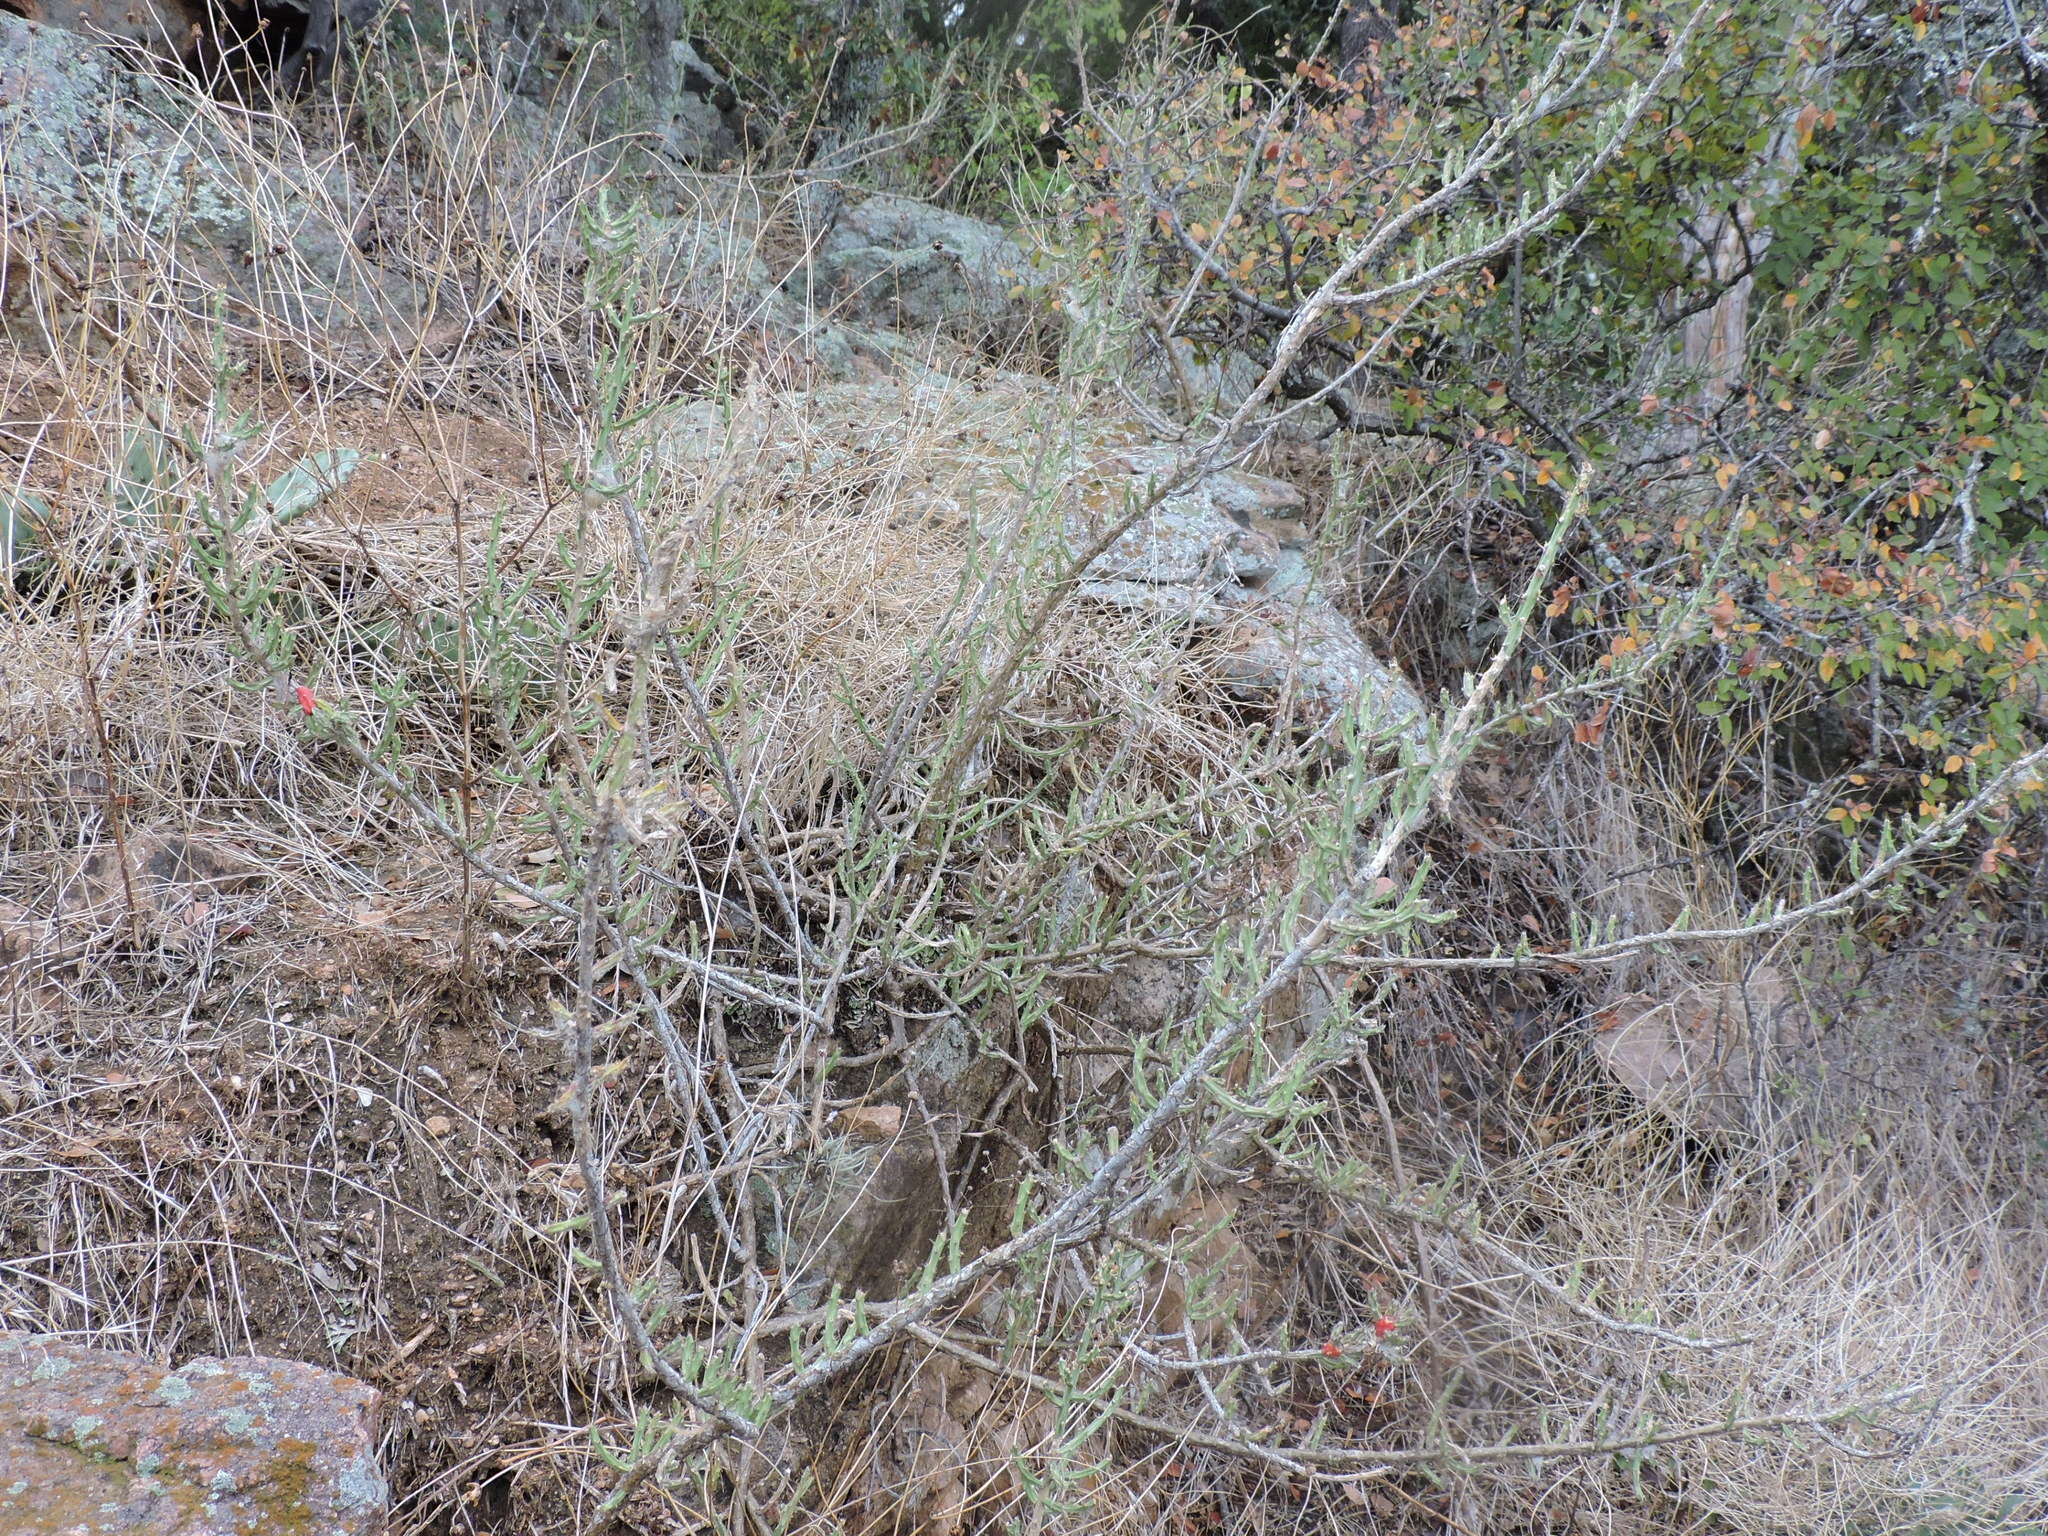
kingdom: Plantae
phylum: Tracheophyta
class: Magnoliopsida
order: Caryophyllales
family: Cactaceae
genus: Cylindropuntia
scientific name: Cylindropuntia leptocaulis
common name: Christmas cactus
